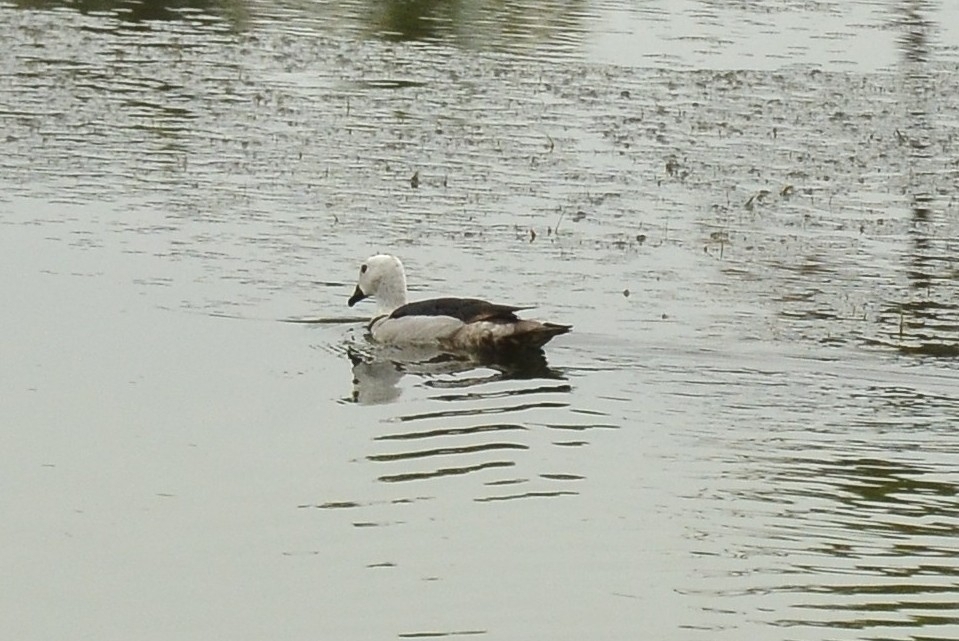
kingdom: Animalia
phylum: Chordata
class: Aves
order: Anseriformes
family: Anatidae
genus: Nettapus
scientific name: Nettapus coromandelianus
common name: Cotton pygmy-goose
